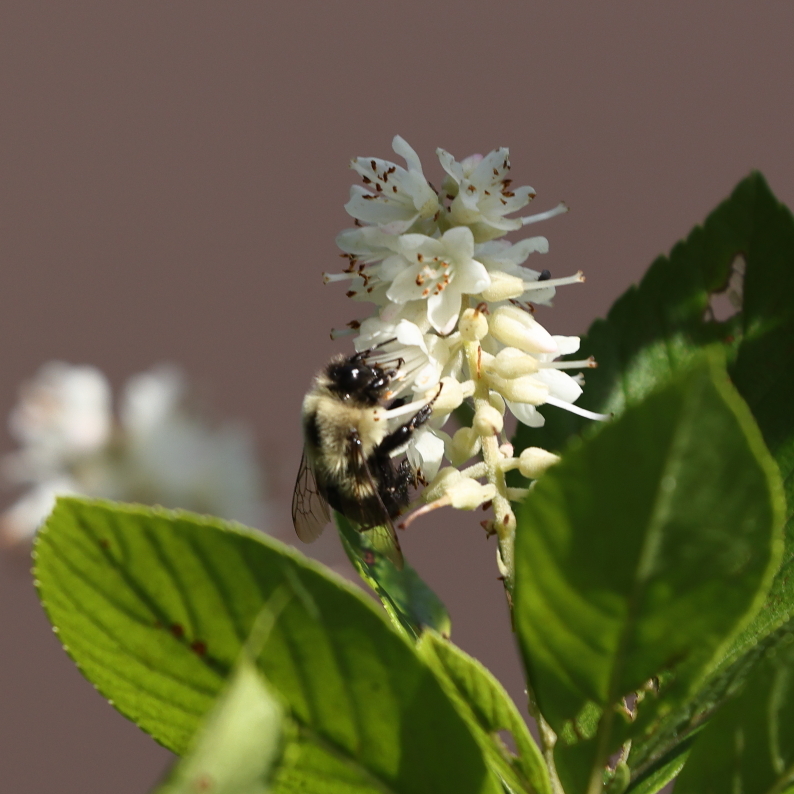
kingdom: Animalia
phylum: Arthropoda
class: Insecta
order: Hymenoptera
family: Apidae
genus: Bombus
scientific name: Bombus impatiens
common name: Common eastern bumble bee
